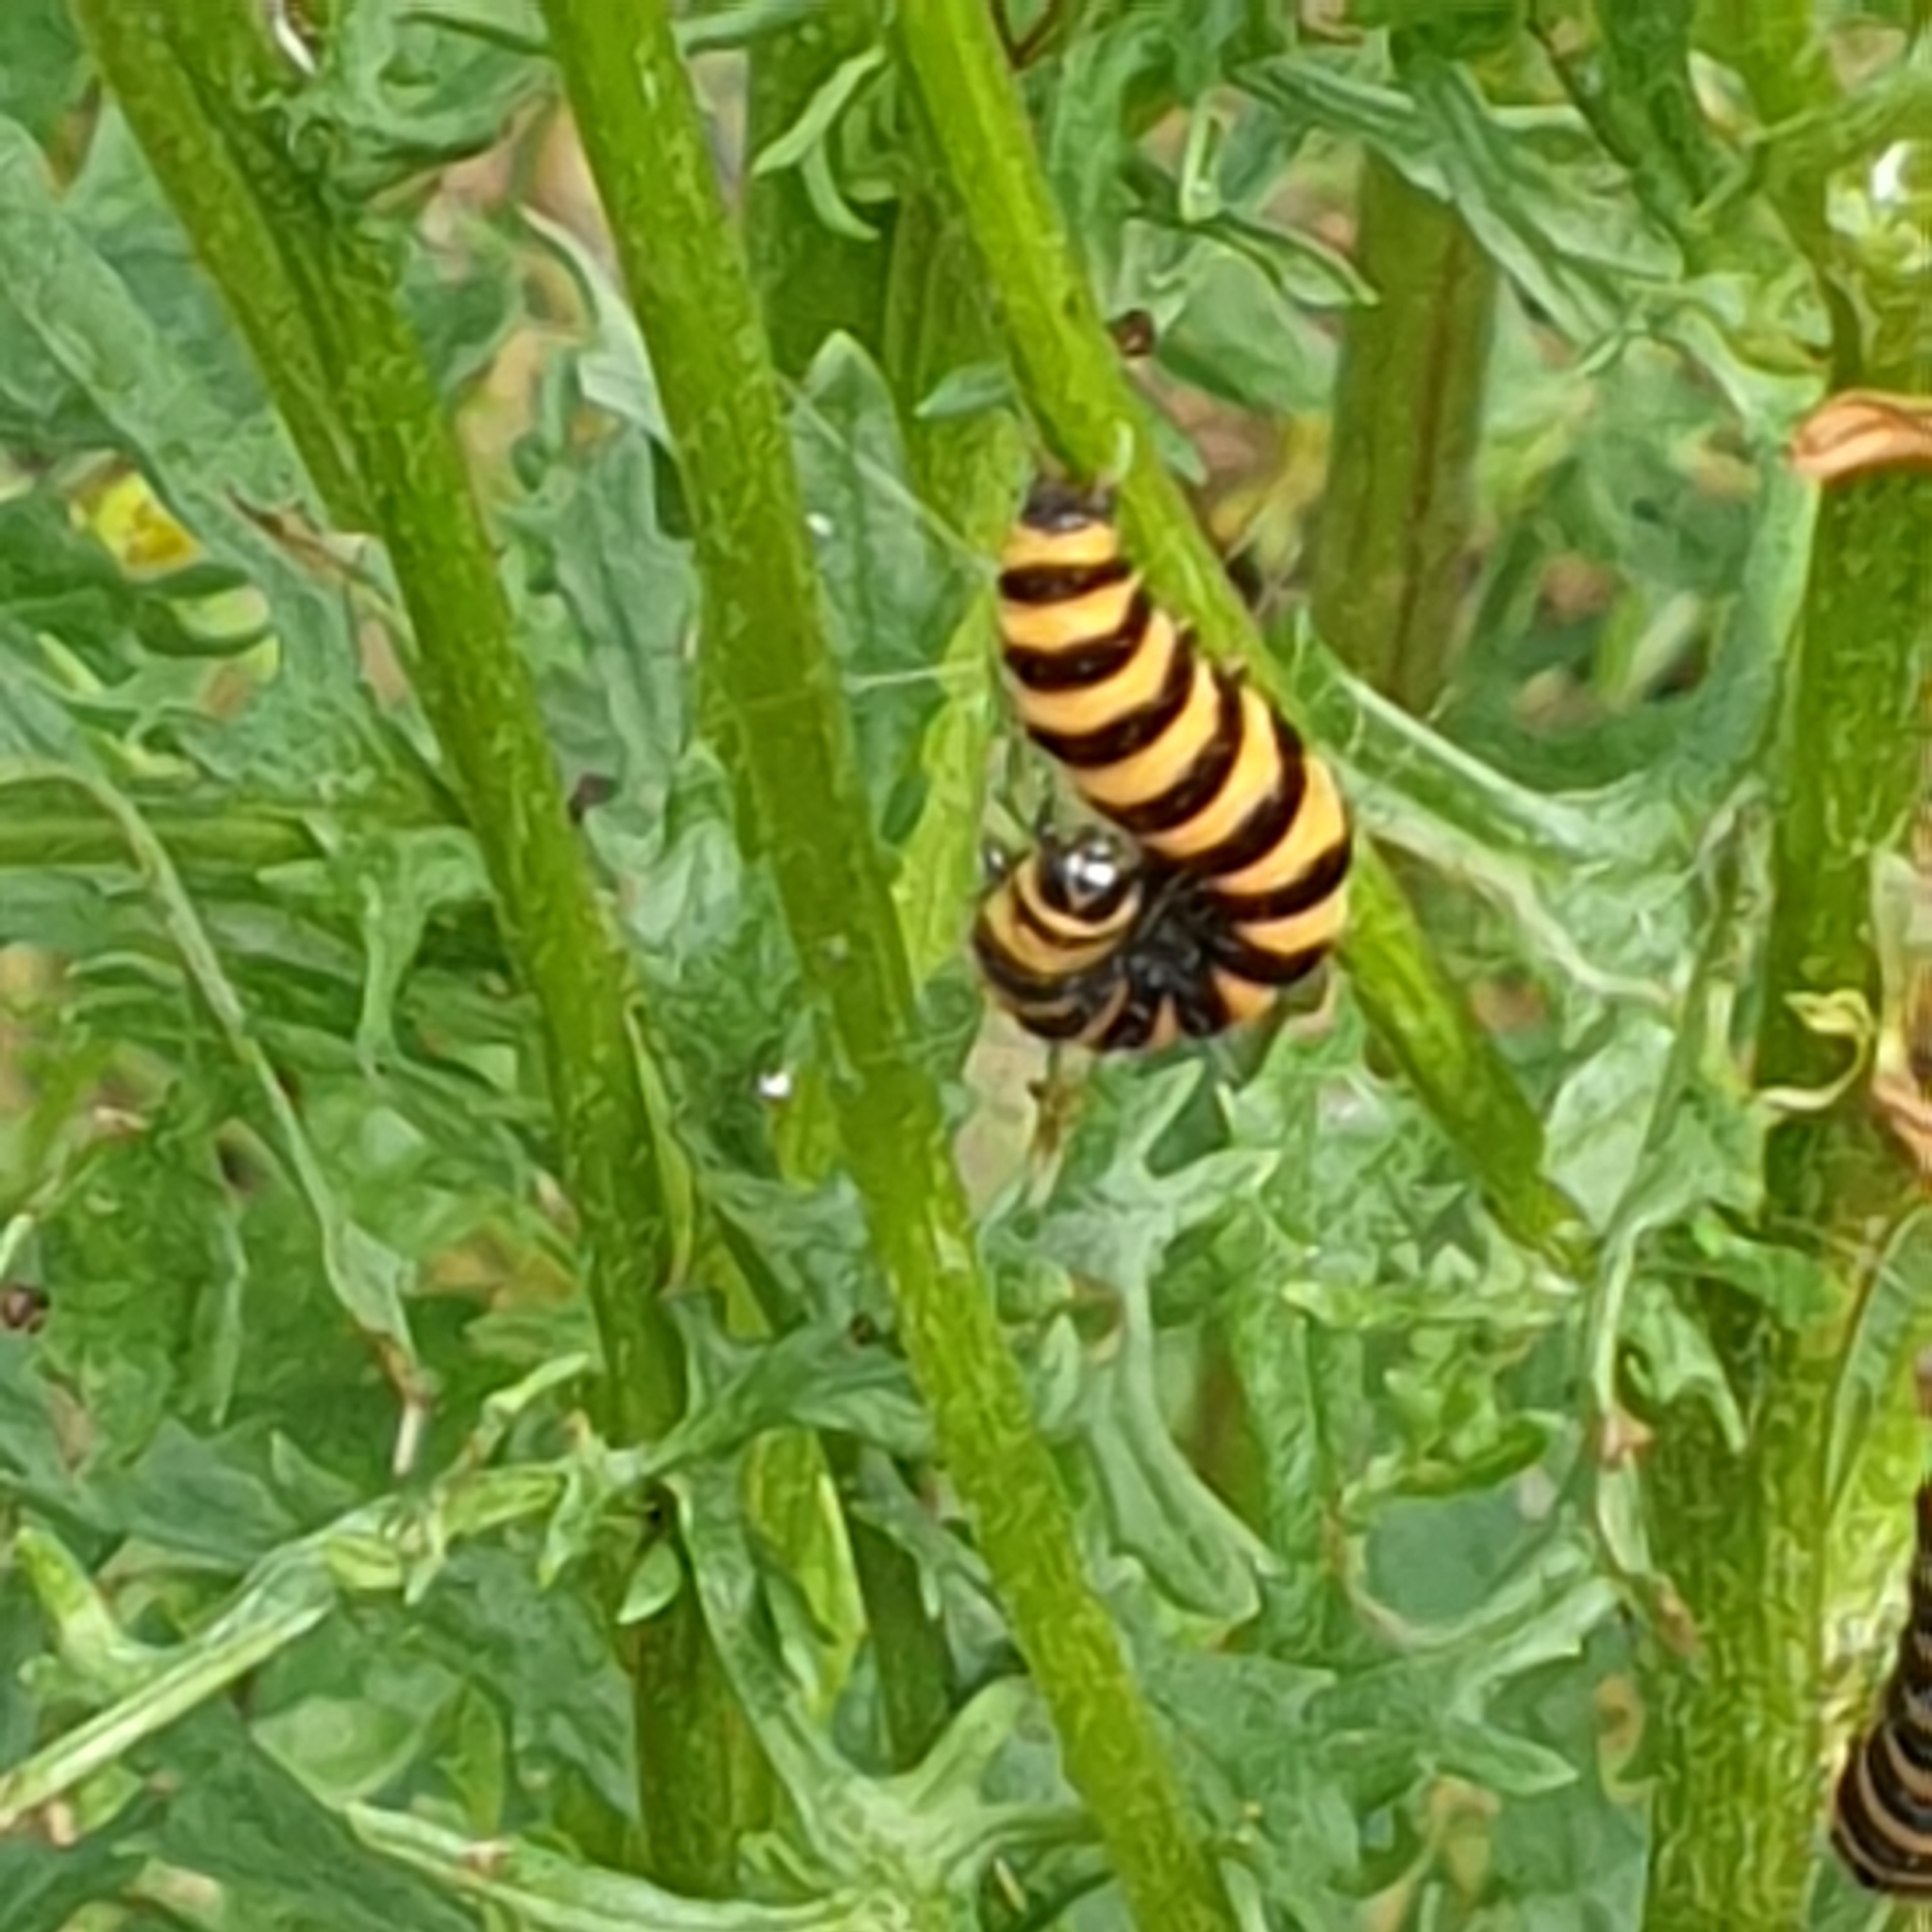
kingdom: Animalia
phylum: Arthropoda
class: Insecta
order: Lepidoptera
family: Erebidae
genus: Tyria
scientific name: Tyria jacobaeae
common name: Cinnabar
